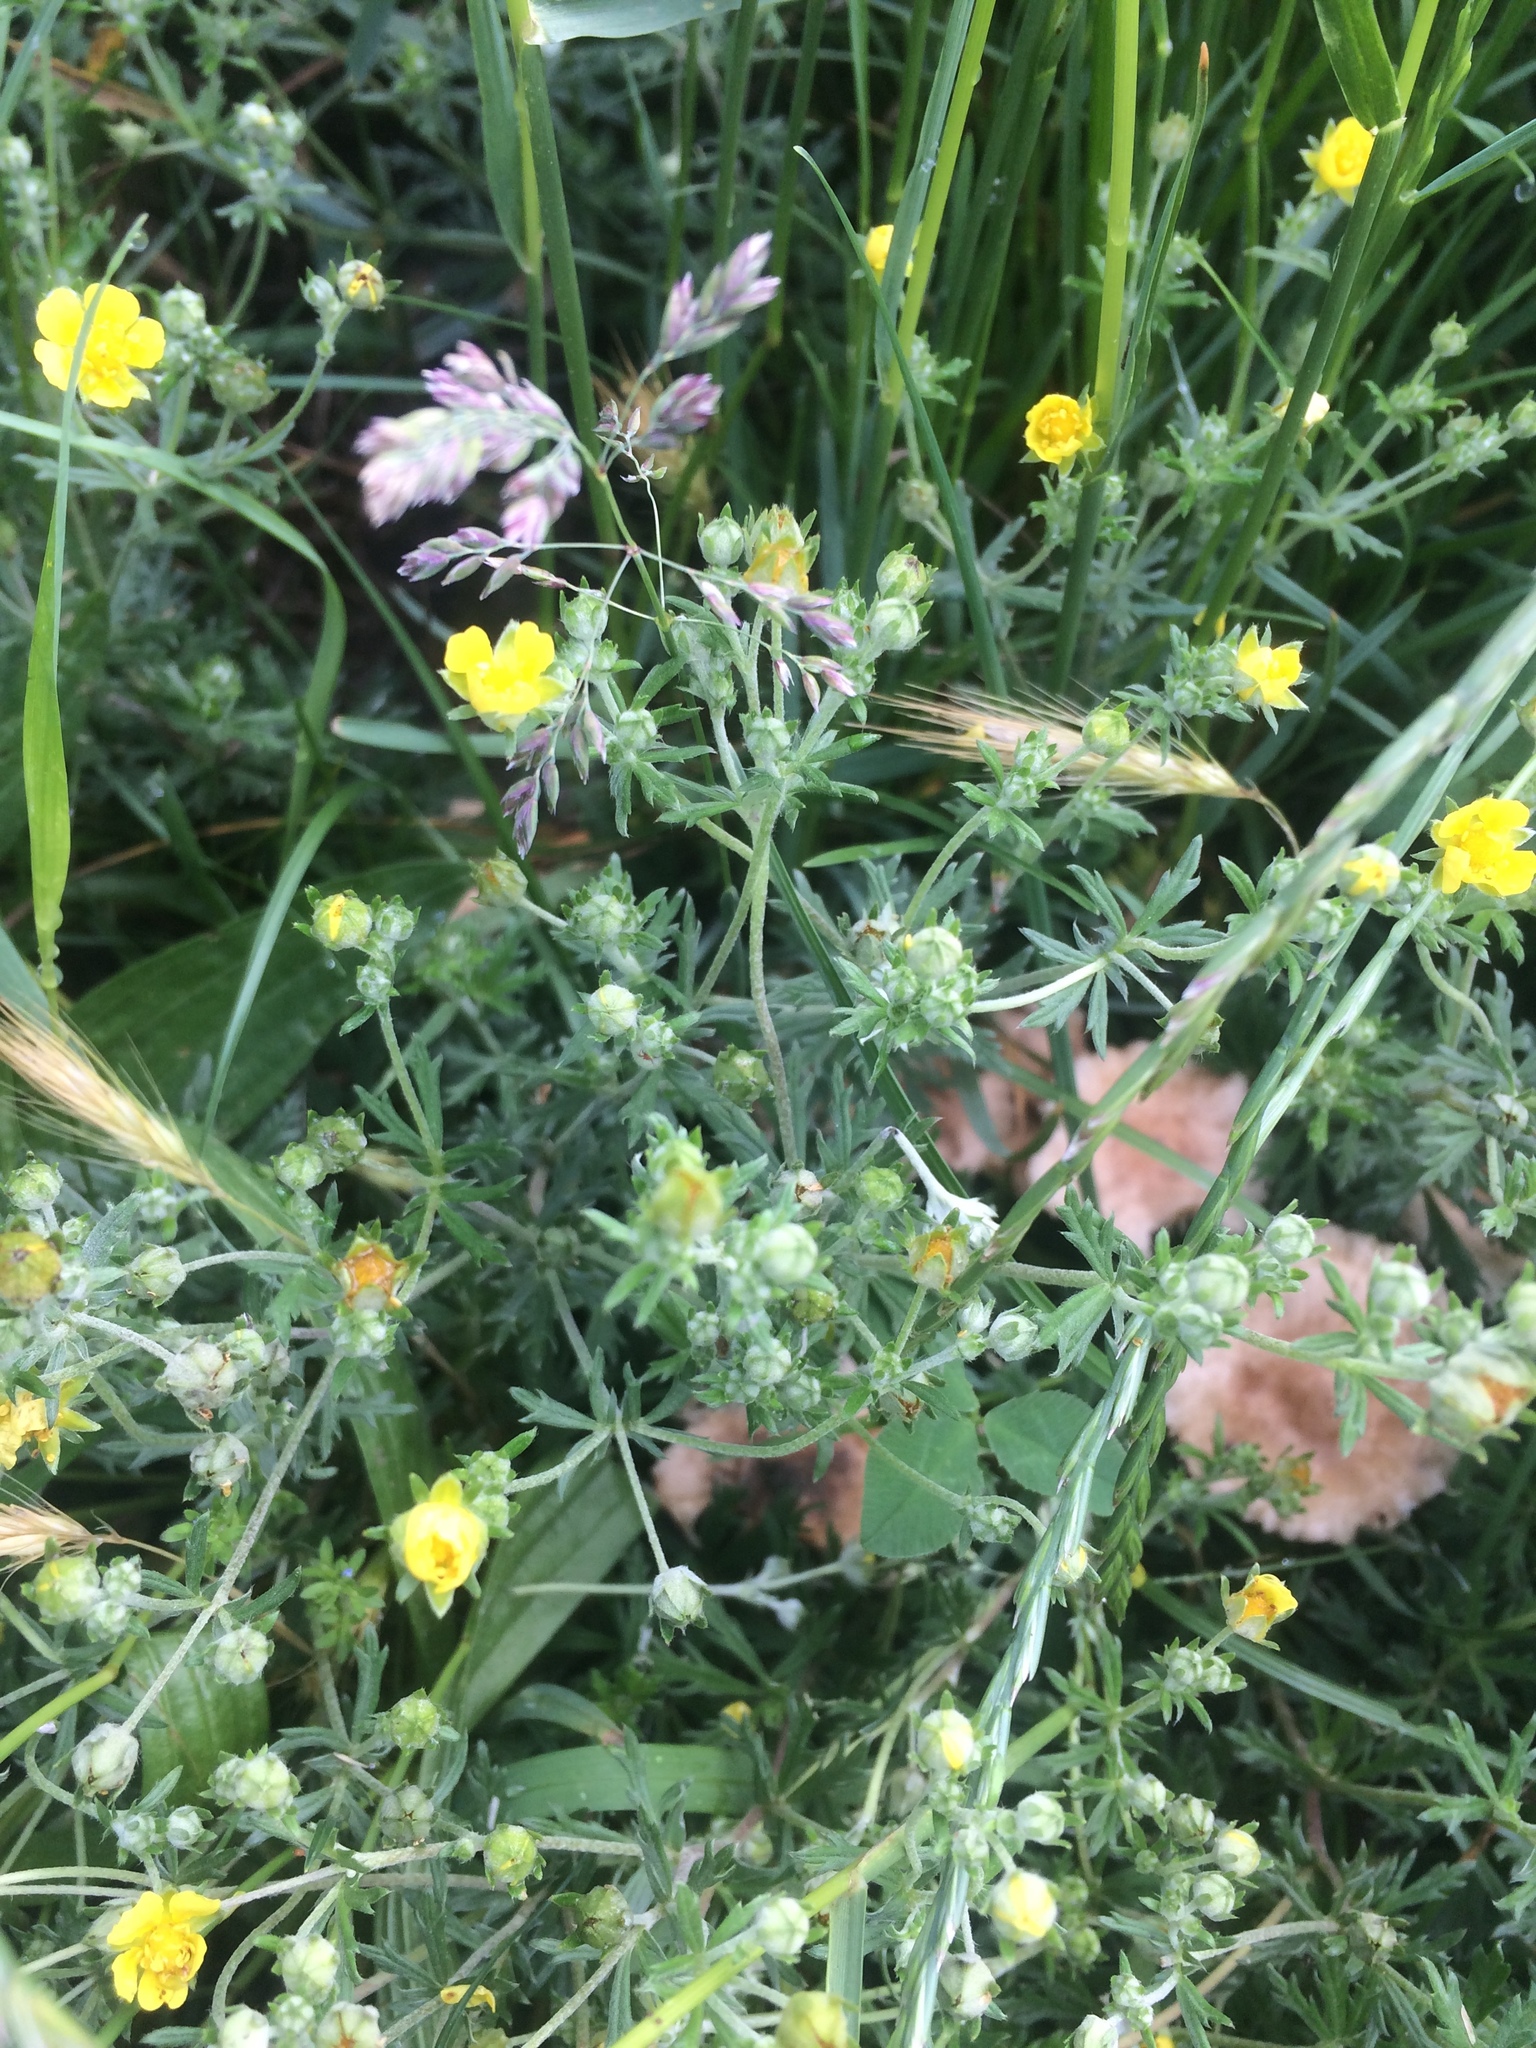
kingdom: Plantae
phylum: Tracheophyta
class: Magnoliopsida
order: Rosales
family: Rosaceae
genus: Potentilla
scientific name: Potentilla argentea
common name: Hoary cinquefoil
